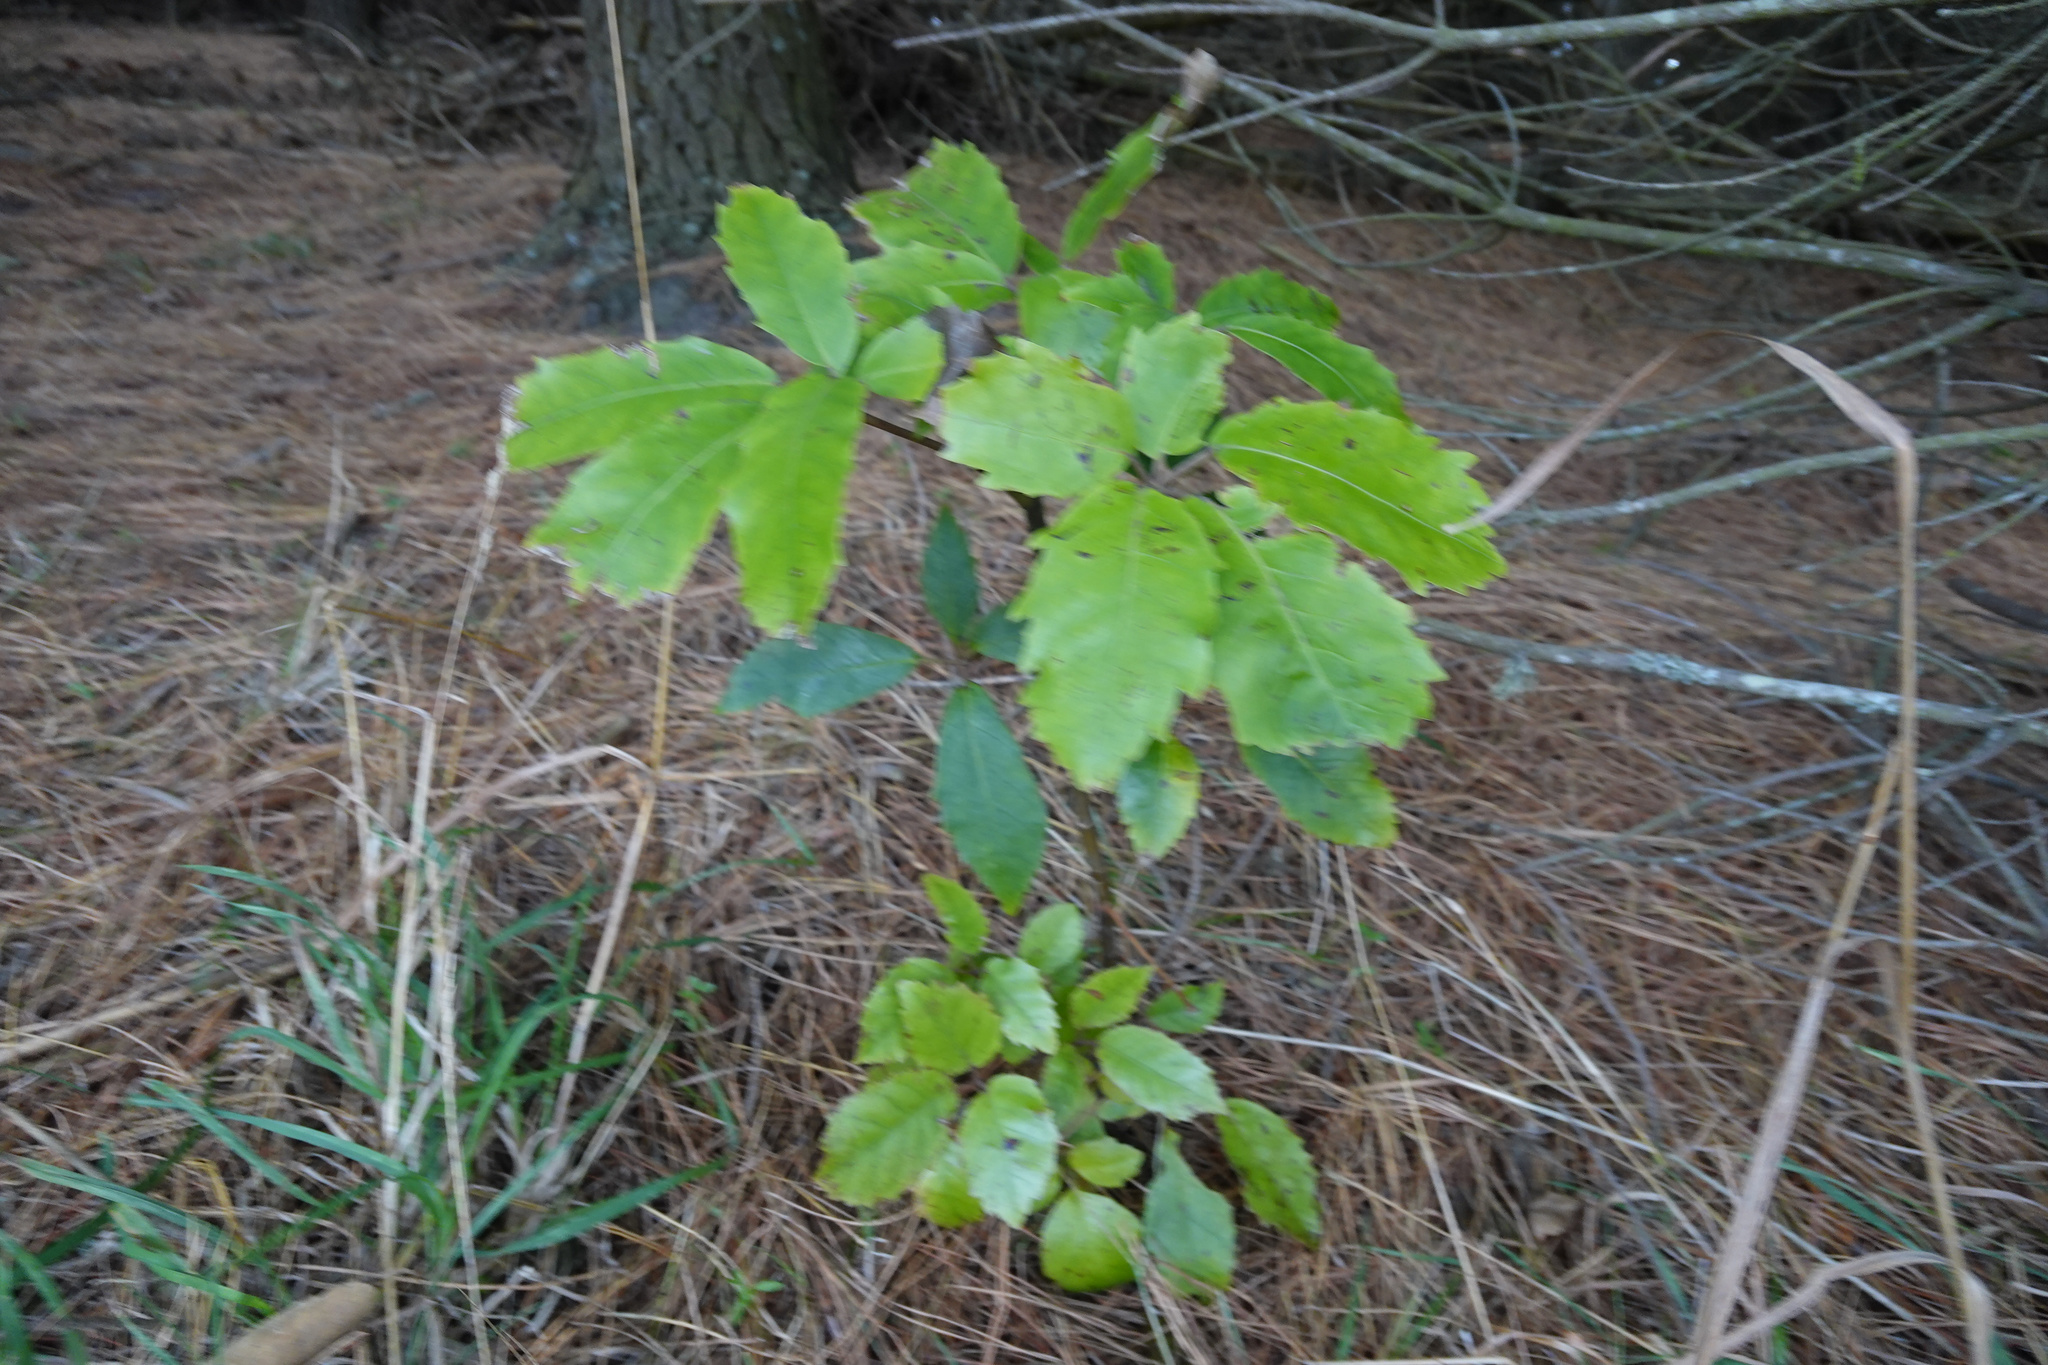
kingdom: Plantae
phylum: Tracheophyta
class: Magnoliopsida
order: Apiales
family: Araliaceae
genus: Neopanax
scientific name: Neopanax arboreus
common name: Five-fingers
